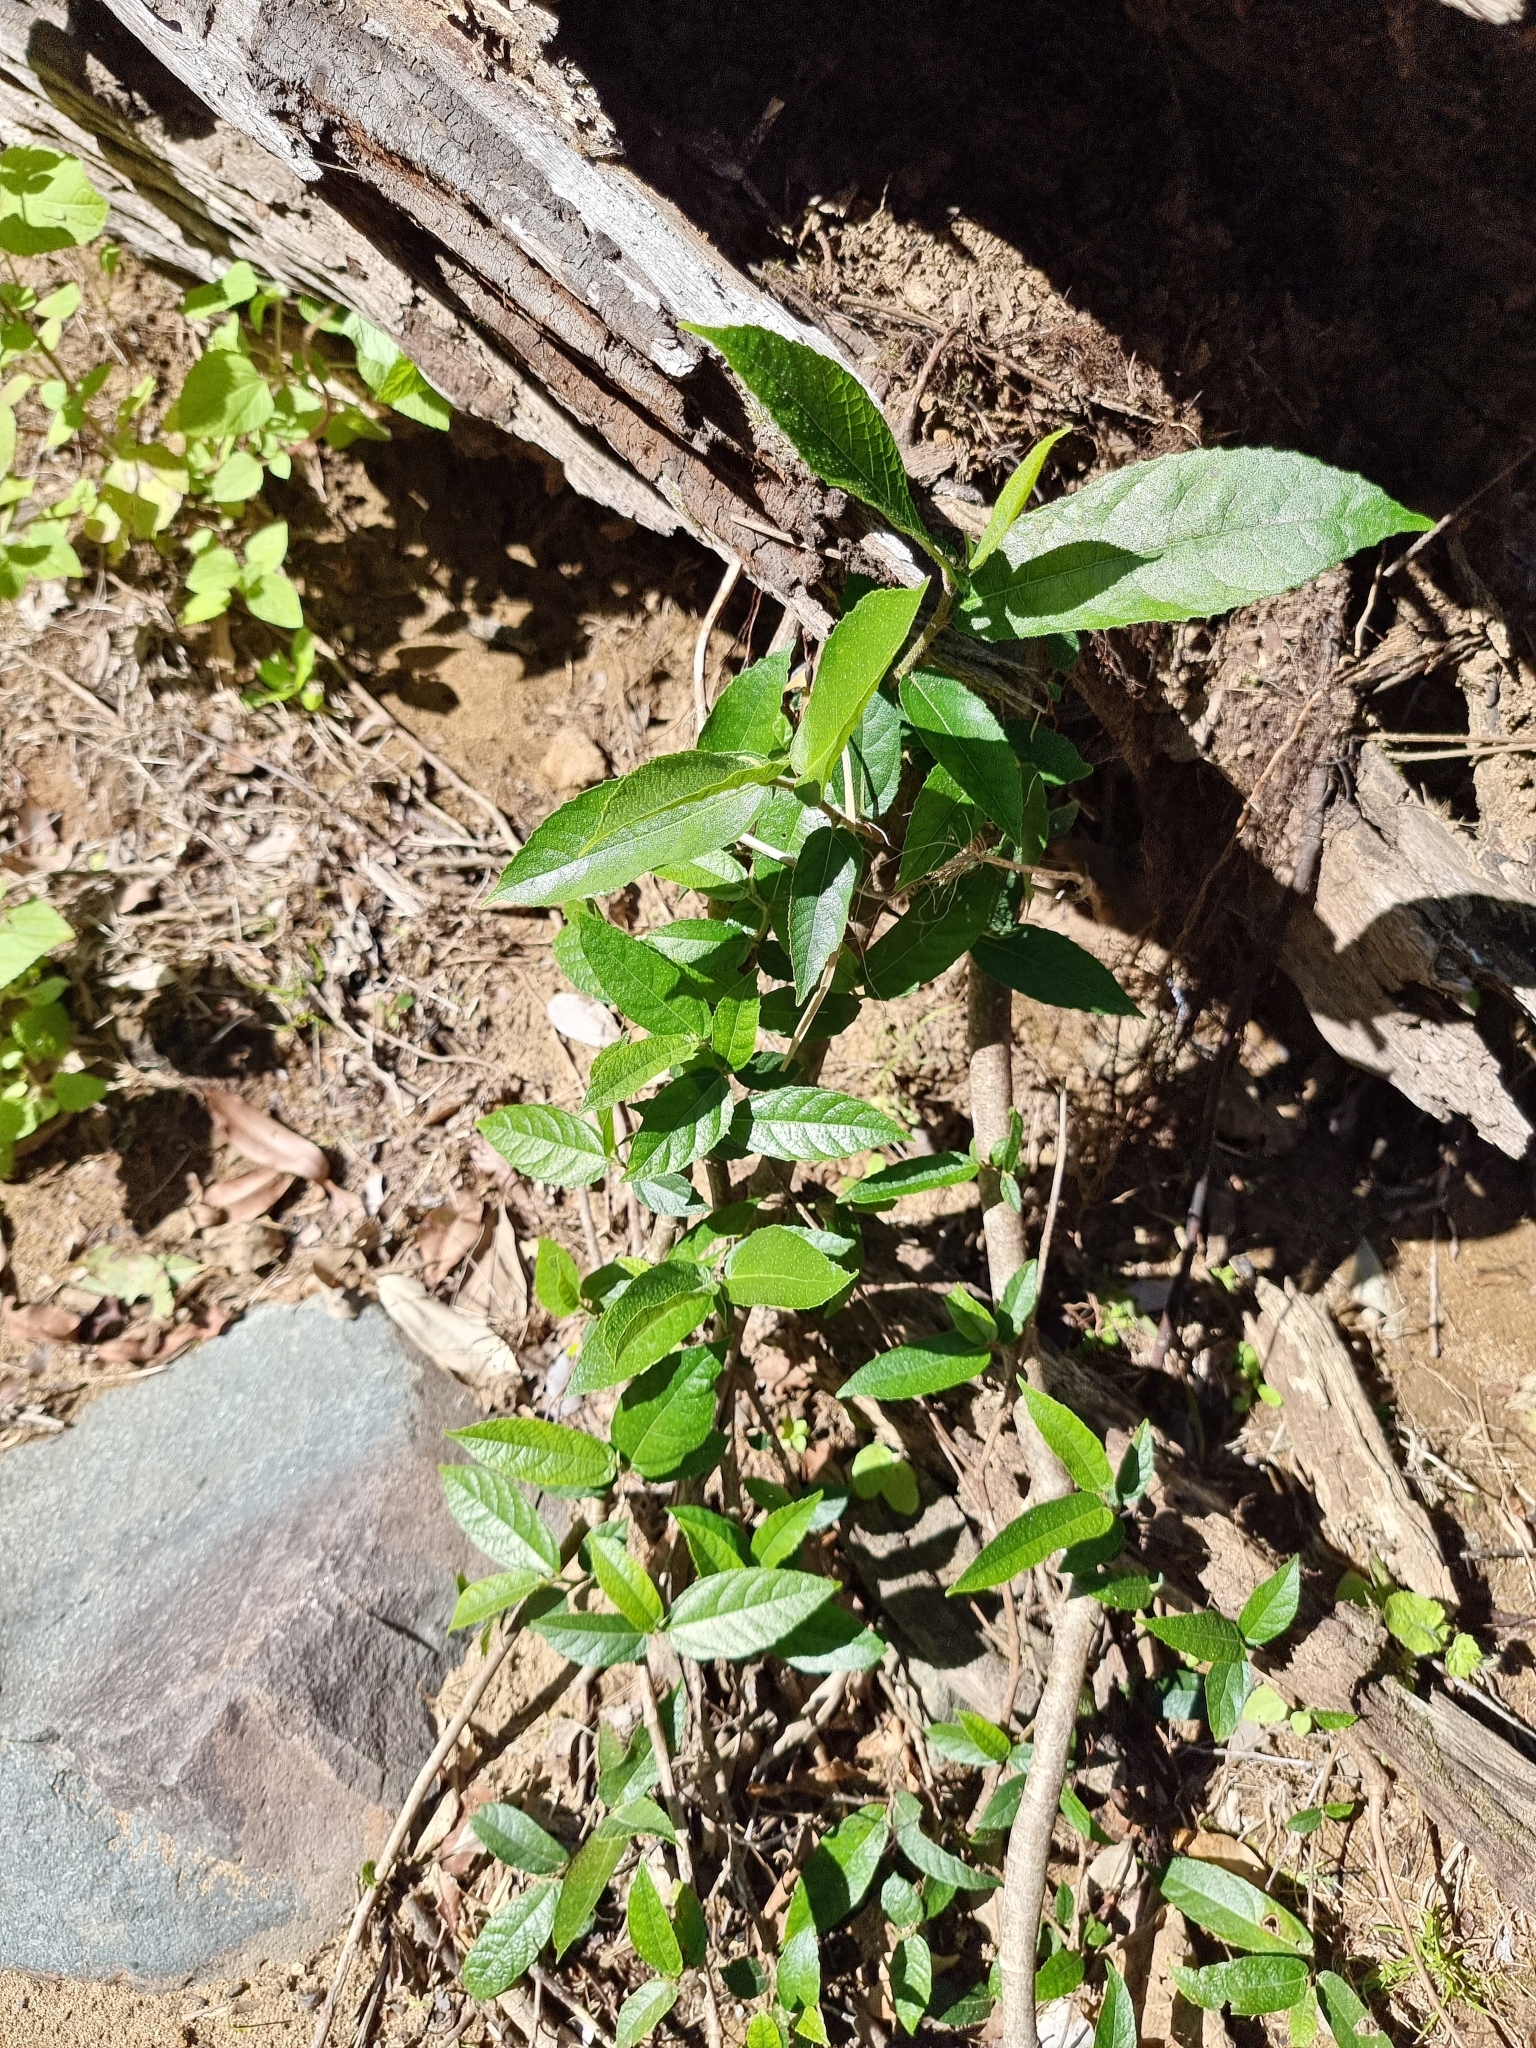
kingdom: Plantae
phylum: Tracheophyta
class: Magnoliopsida
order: Rosales
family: Moraceae
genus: Ficus
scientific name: Ficus coronata
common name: Creek sandpaper fig
